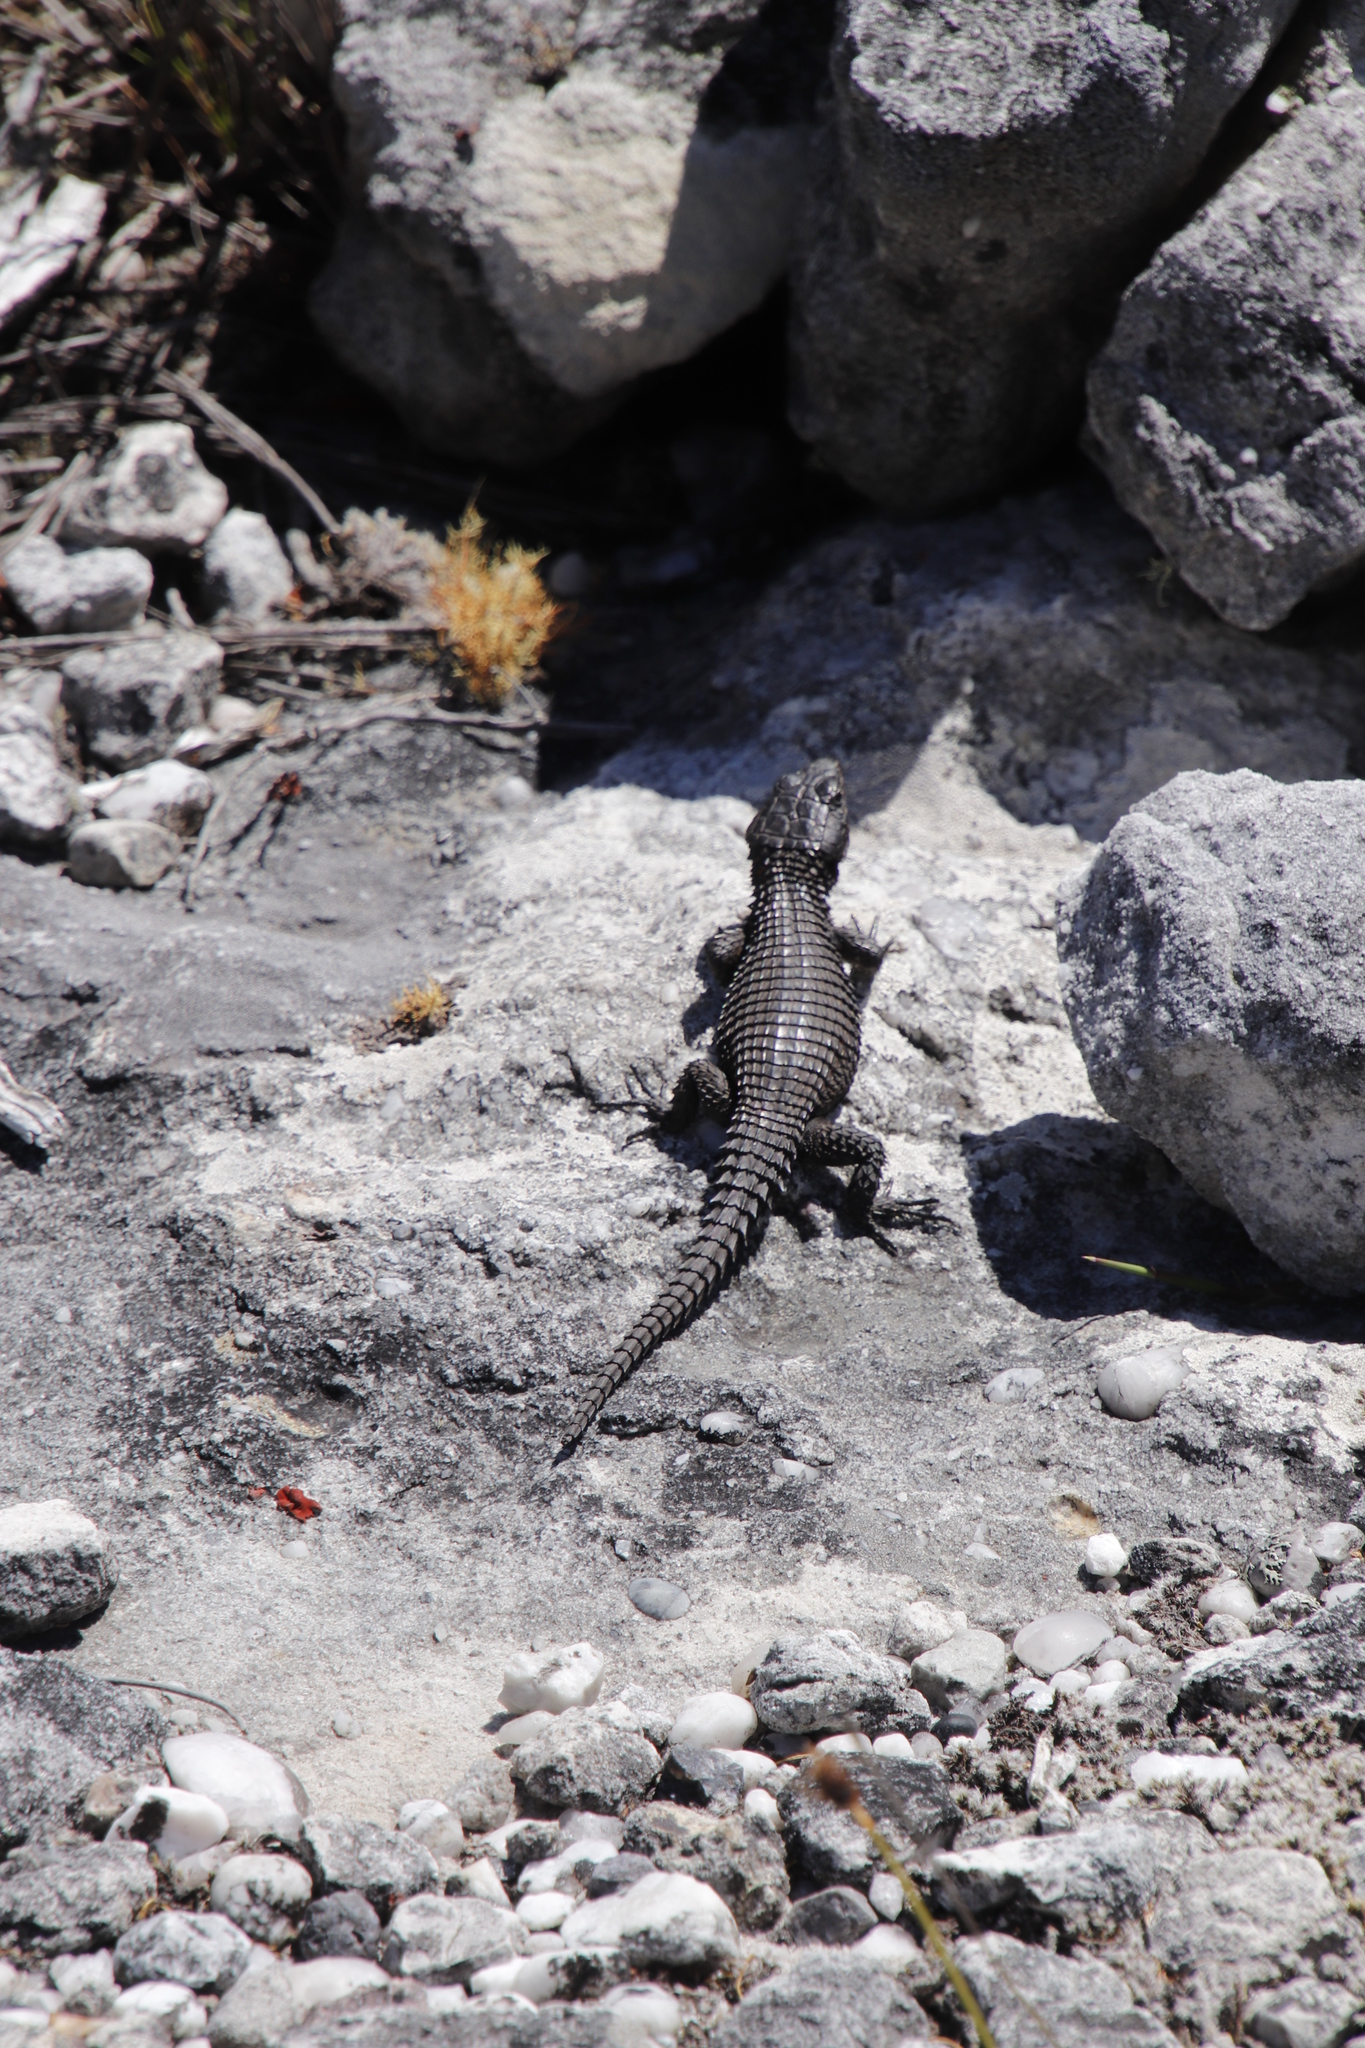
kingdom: Animalia
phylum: Chordata
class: Squamata
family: Cordylidae
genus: Cordylus
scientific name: Cordylus niger
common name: Black girdled lizard
